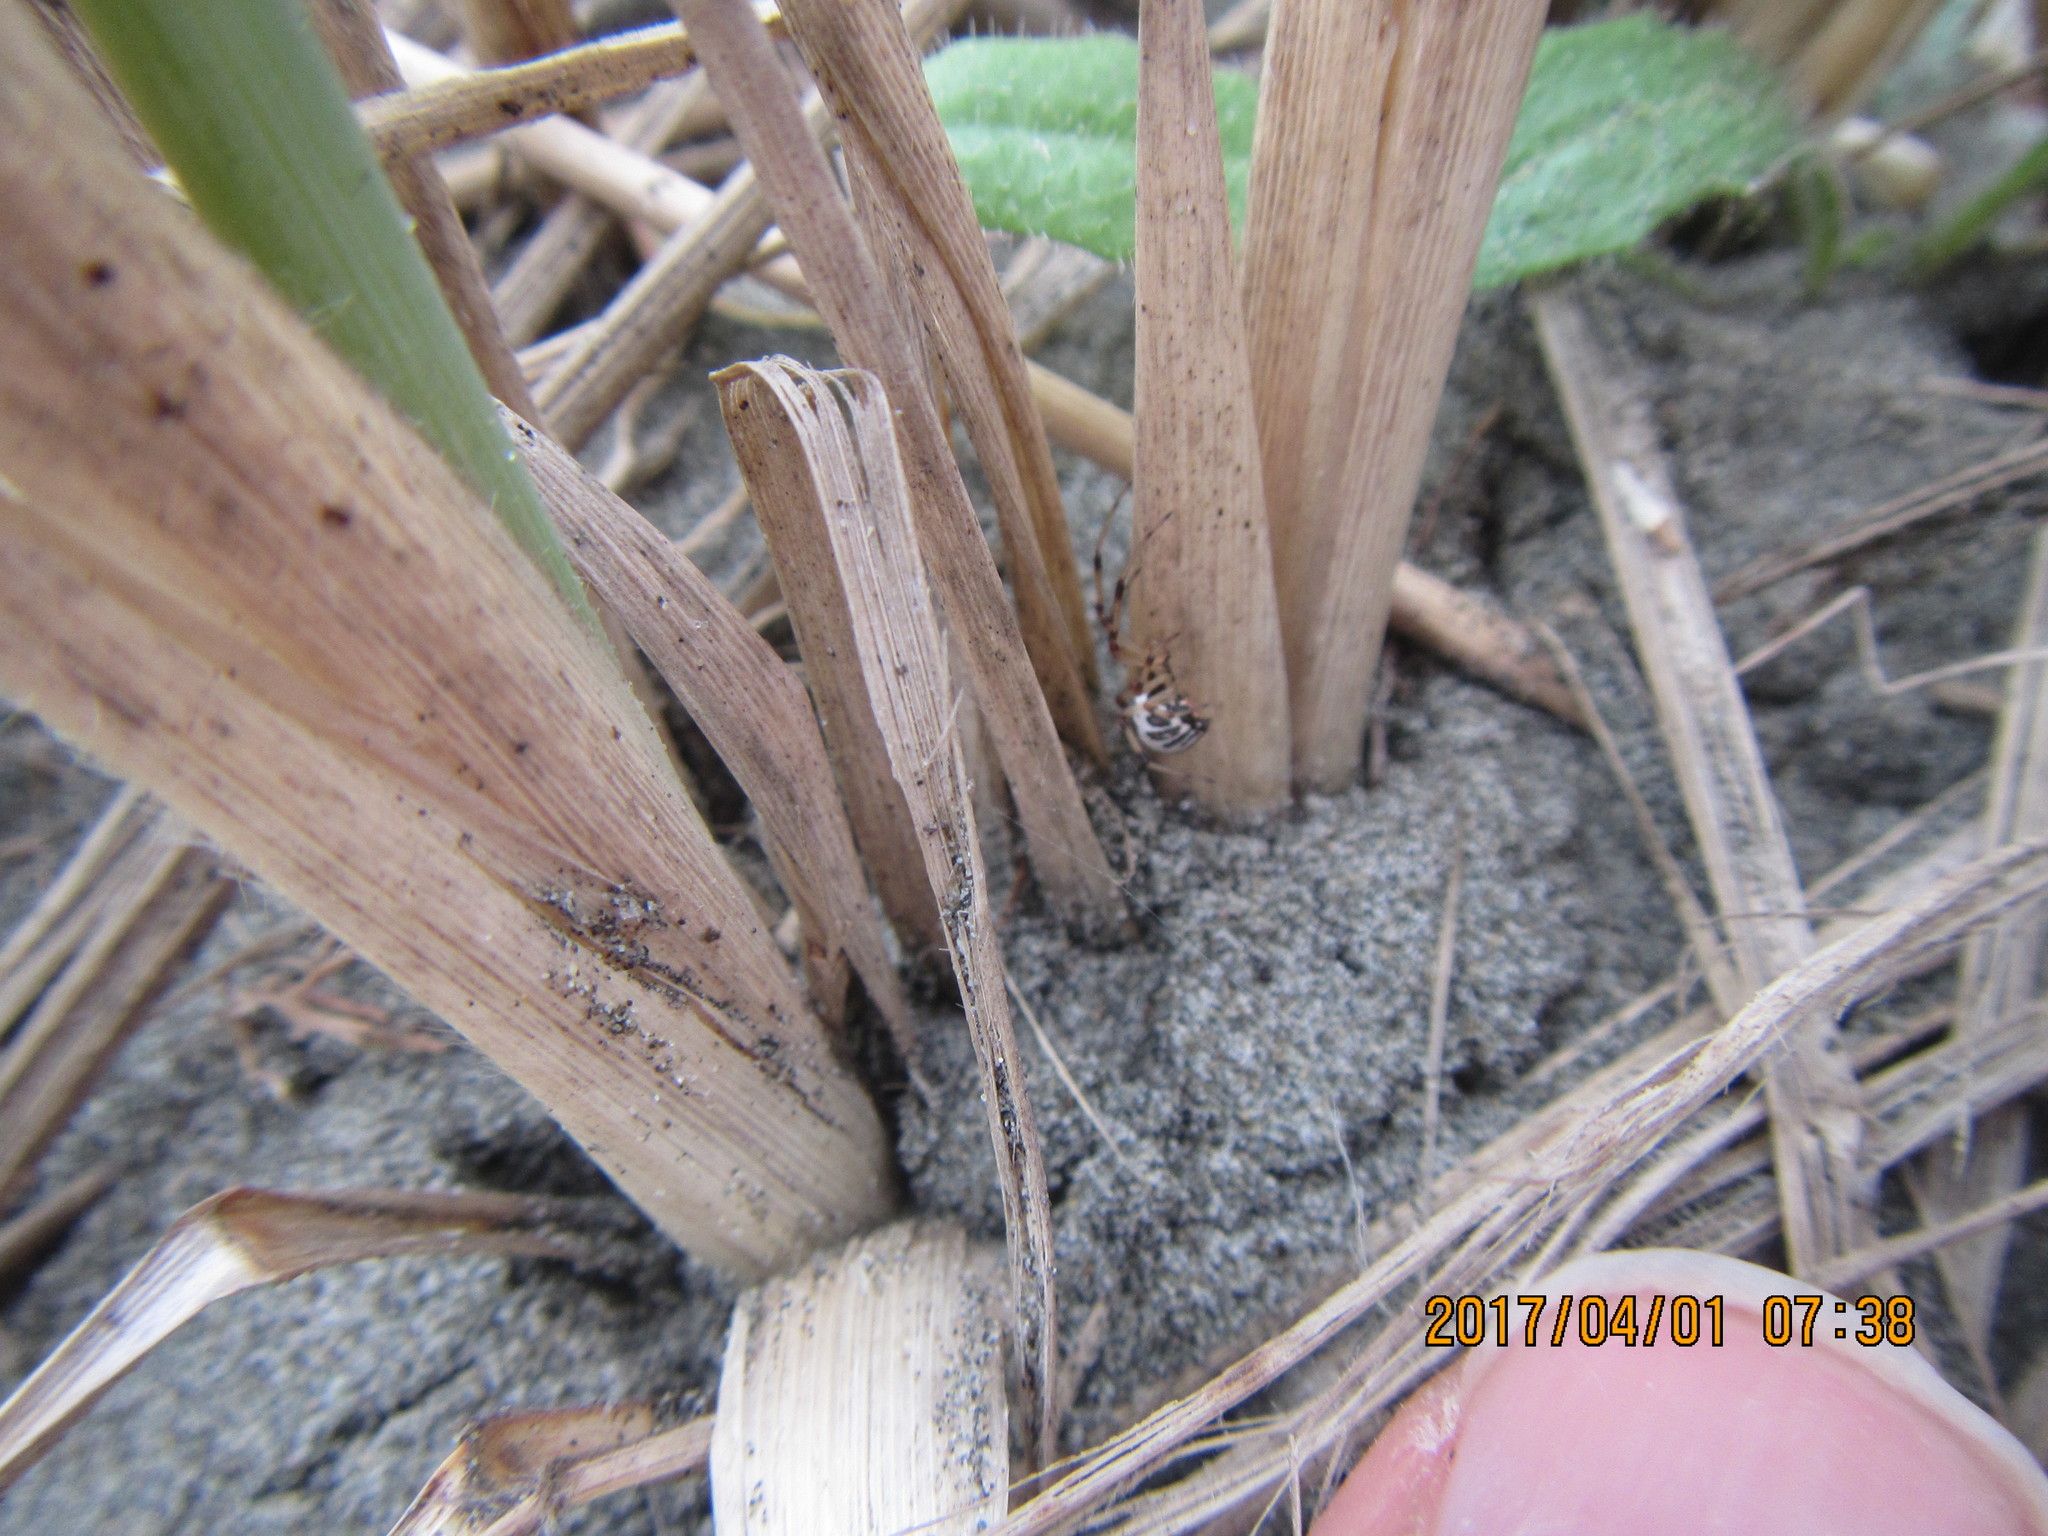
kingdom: Animalia
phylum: Arthropoda
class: Arachnida
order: Araneae
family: Theridiidae
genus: Latrodectus
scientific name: Latrodectus katipo
